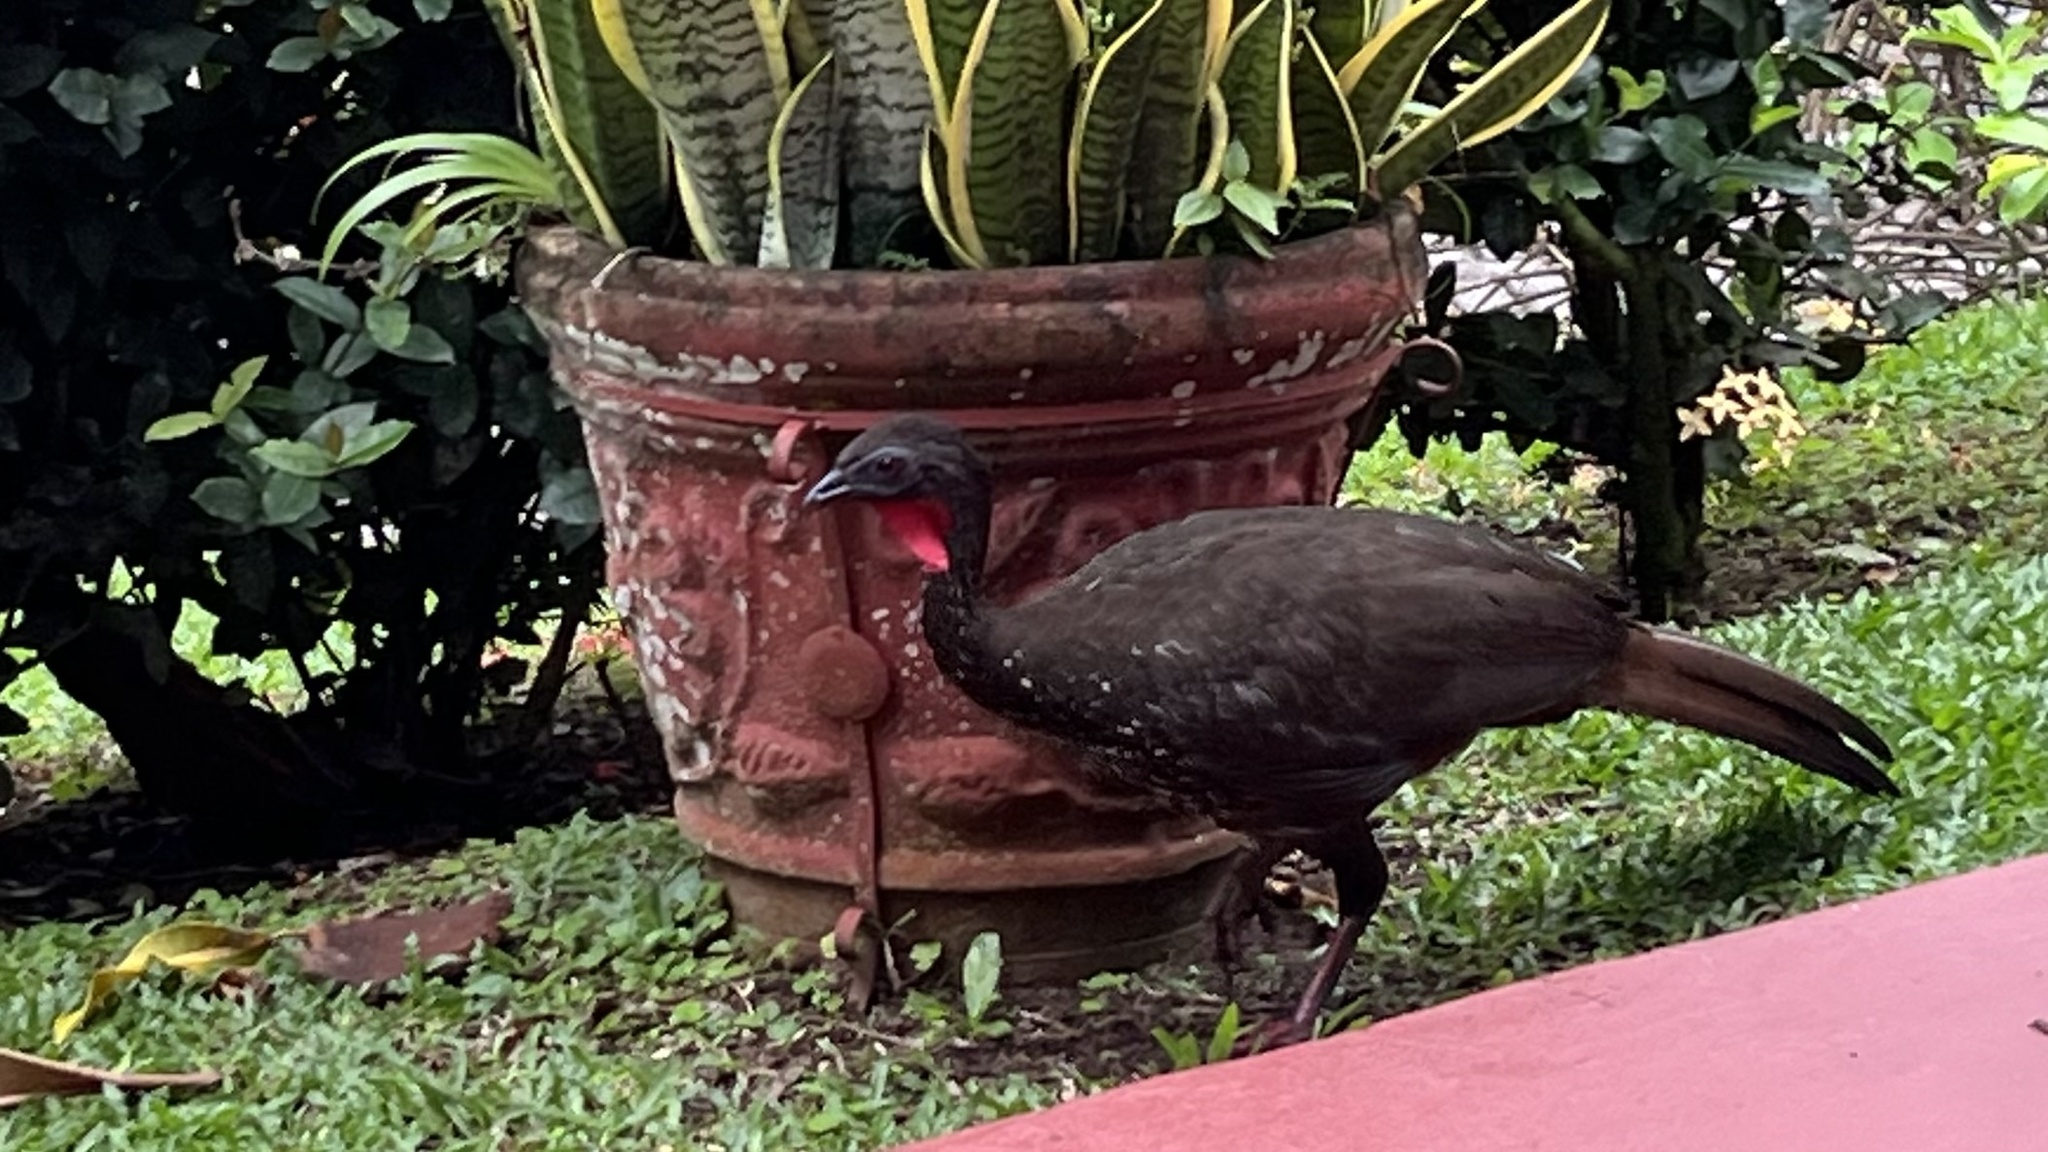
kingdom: Animalia
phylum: Chordata
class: Aves
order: Galliformes
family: Cracidae
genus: Penelope
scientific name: Penelope purpurascens
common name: Crested guan
